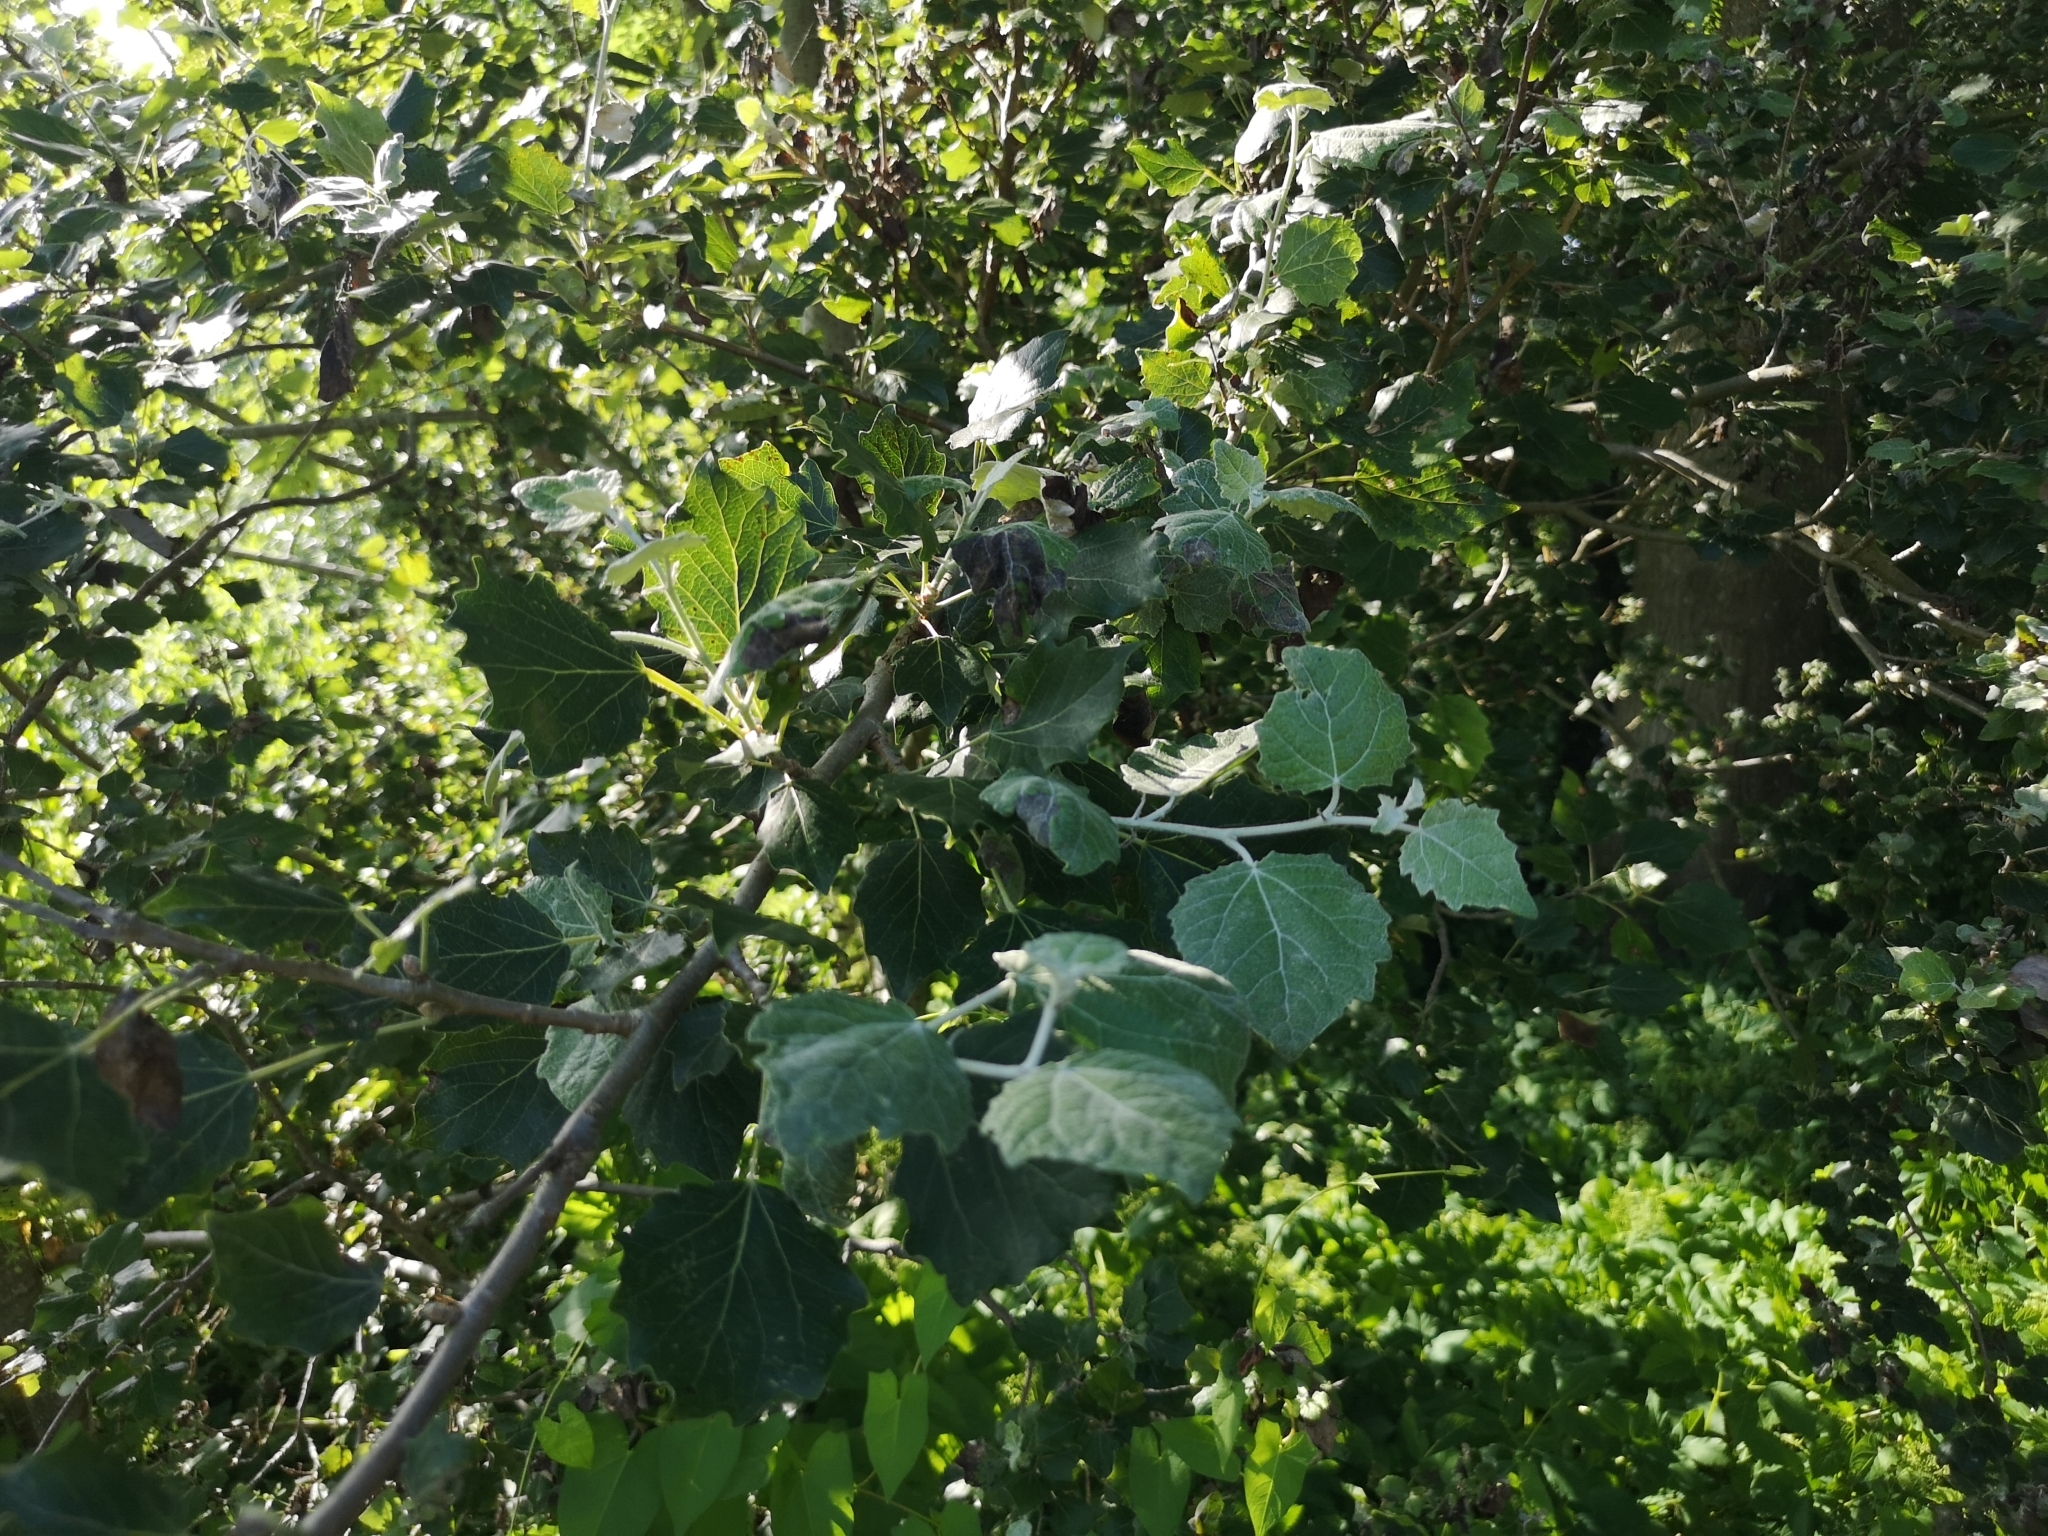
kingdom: Plantae
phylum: Tracheophyta
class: Magnoliopsida
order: Malpighiales
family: Salicaceae
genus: Populus
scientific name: Populus canescens
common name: Gray poplar
